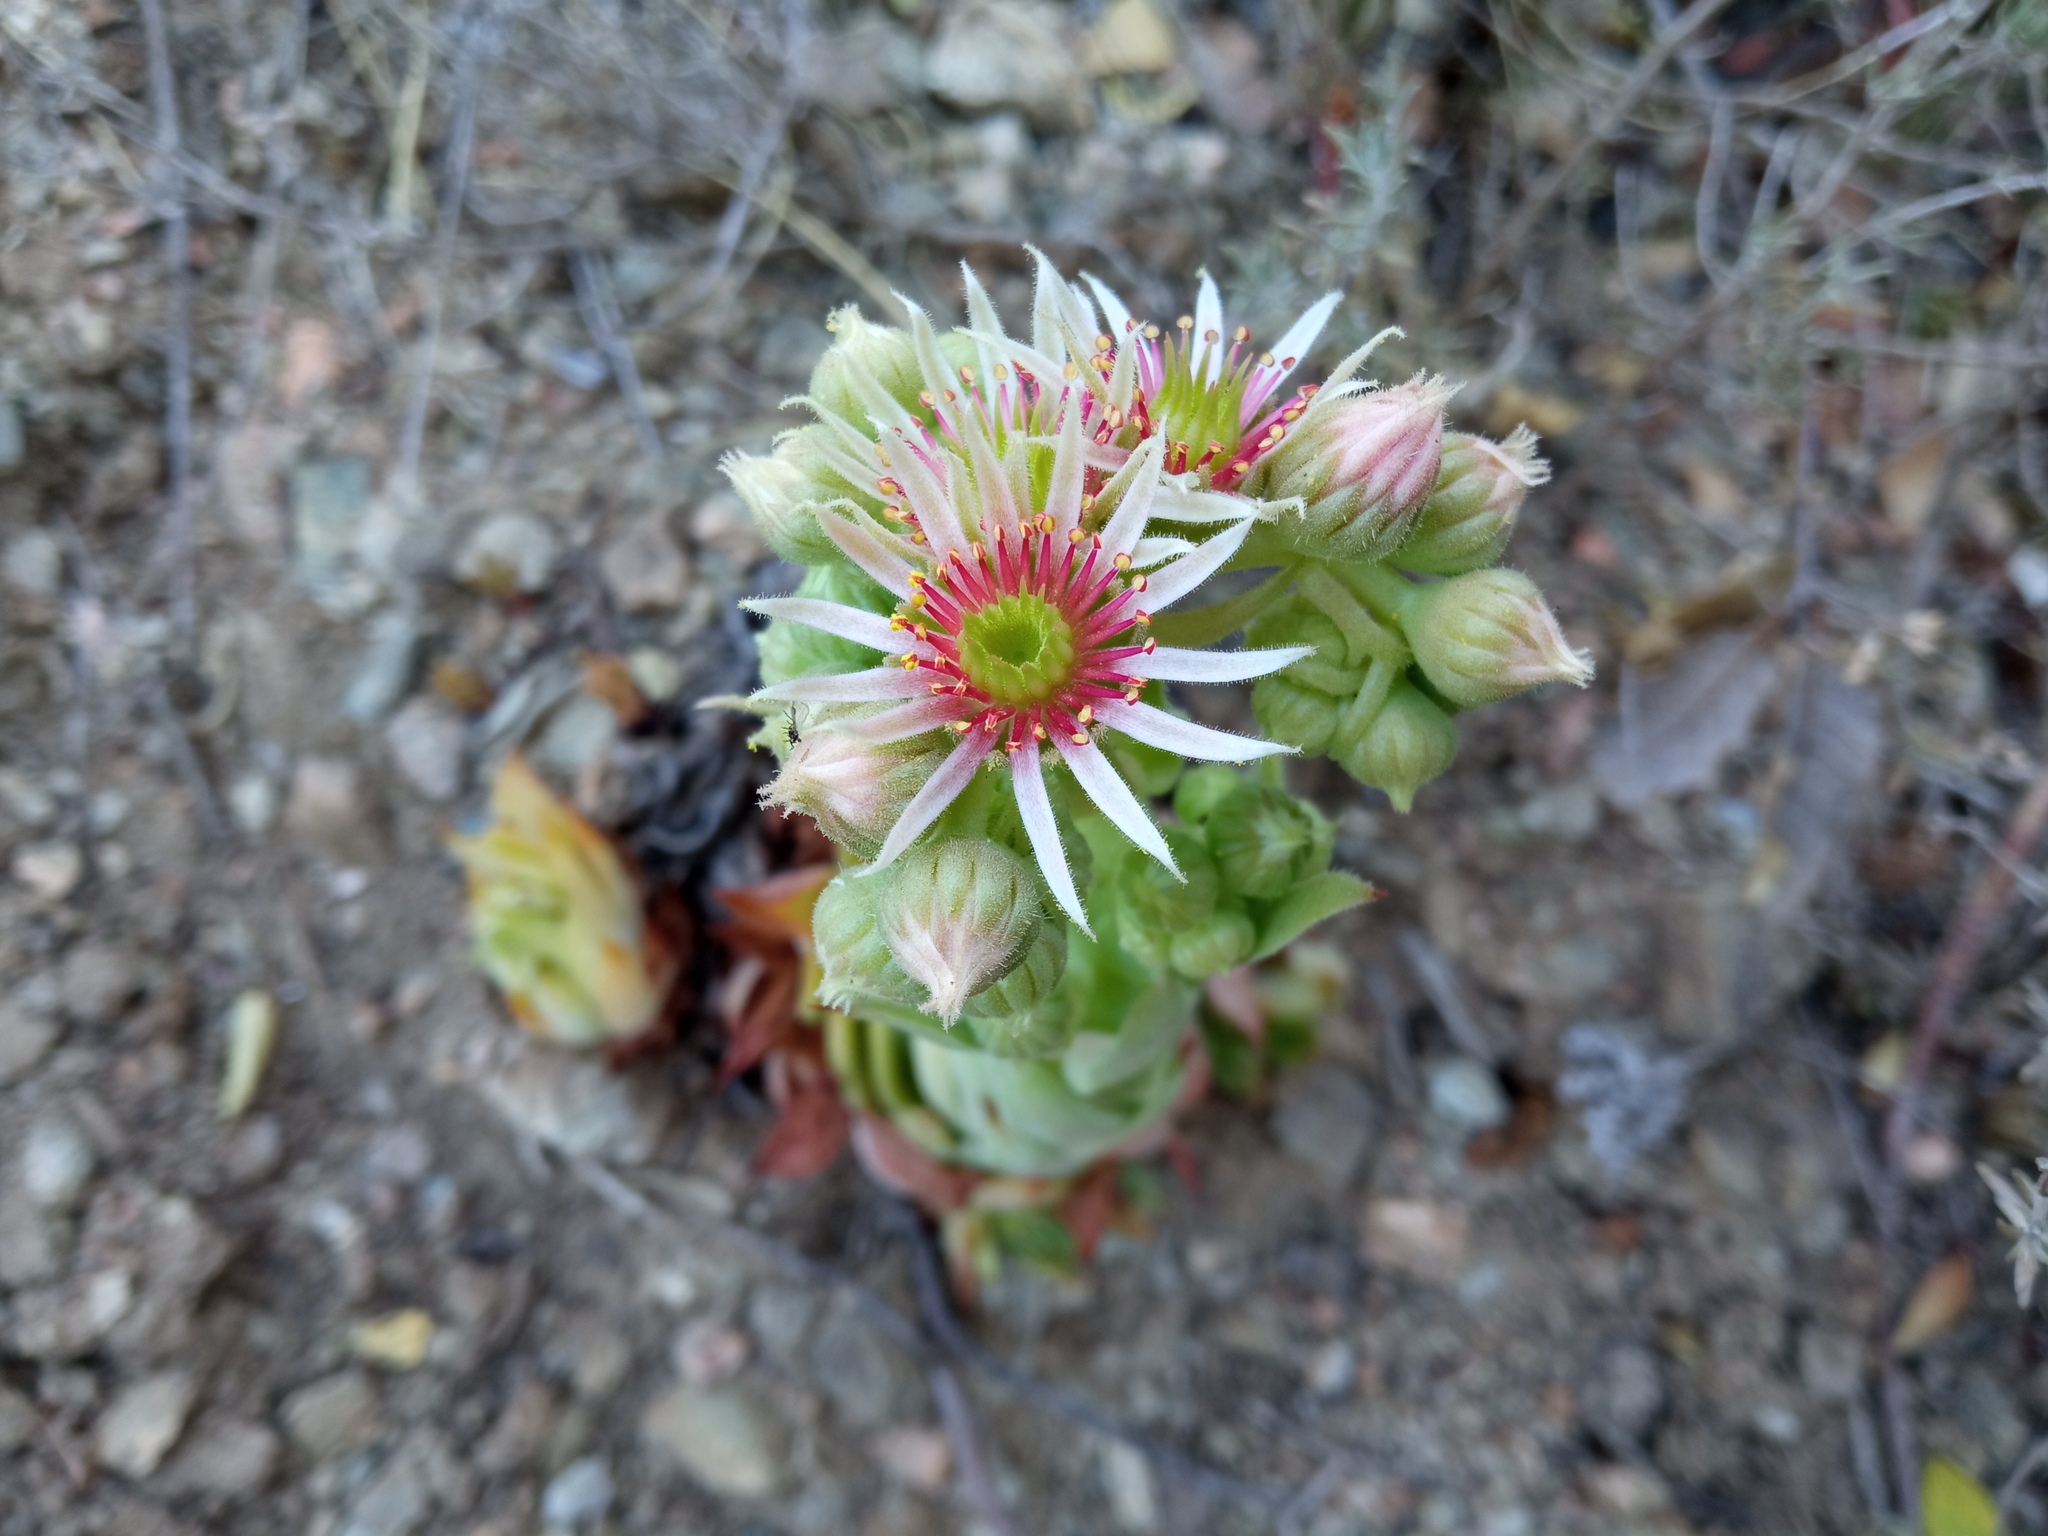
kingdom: Plantae
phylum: Tracheophyta
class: Magnoliopsida
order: Saxifragales
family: Crassulaceae
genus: Sempervivum
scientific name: Sempervivum tectorum
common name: House-leek
